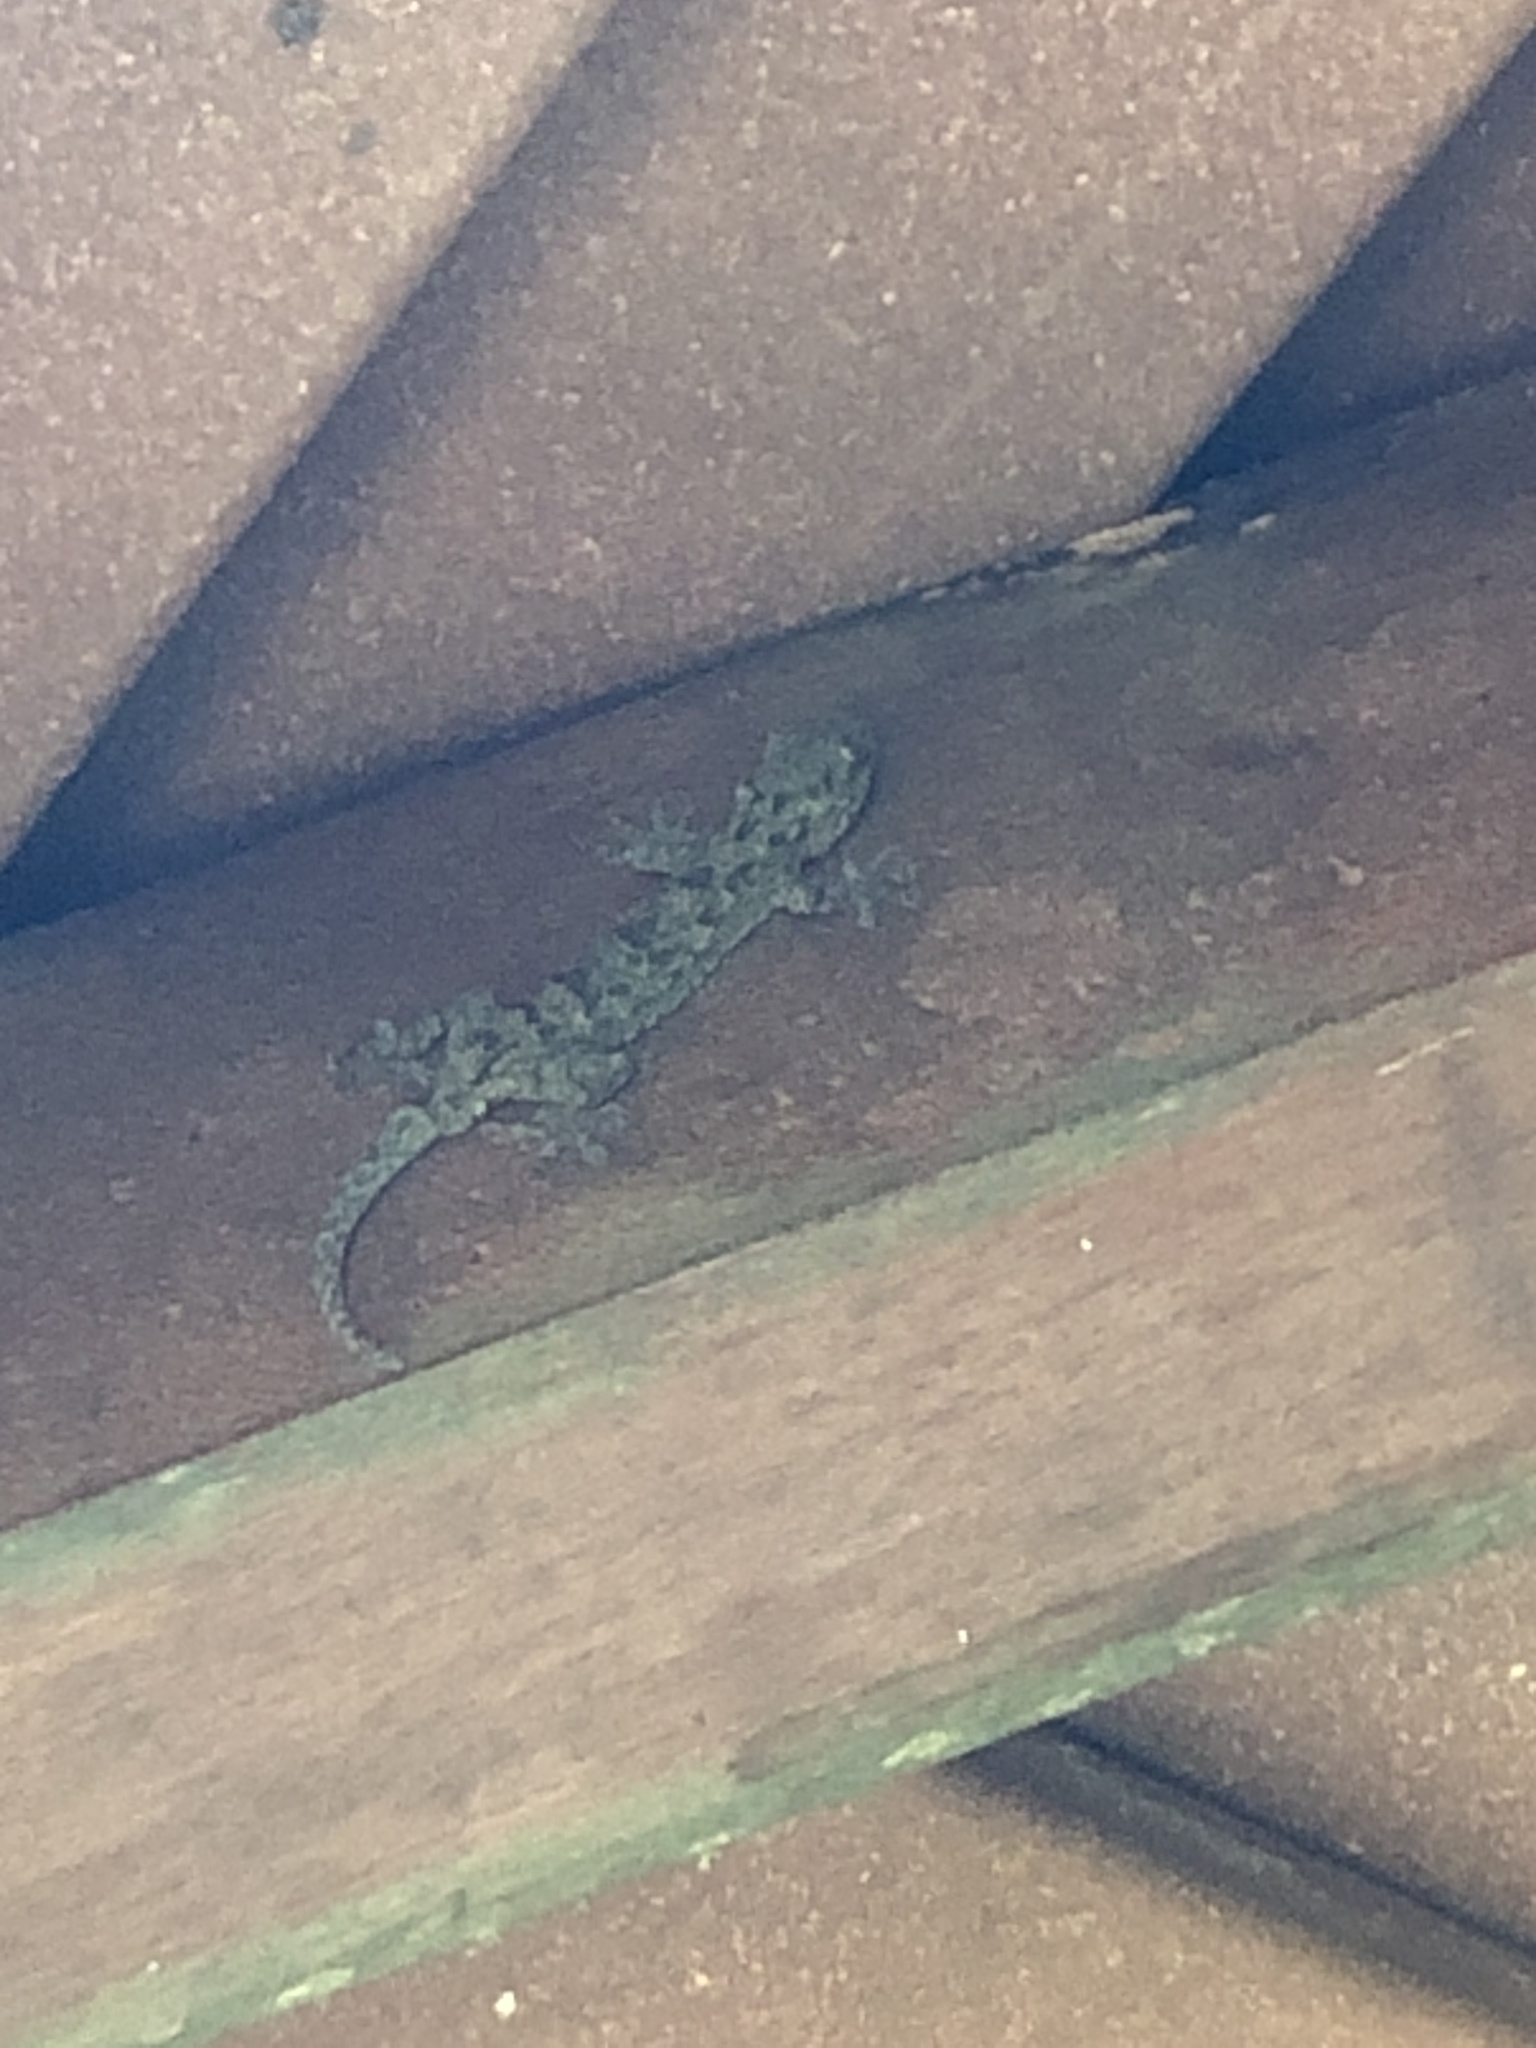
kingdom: Animalia
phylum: Chordata
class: Squamata
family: Gekkonidae
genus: Gekko
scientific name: Gekko chinensis
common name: Gray's chinese gecko
